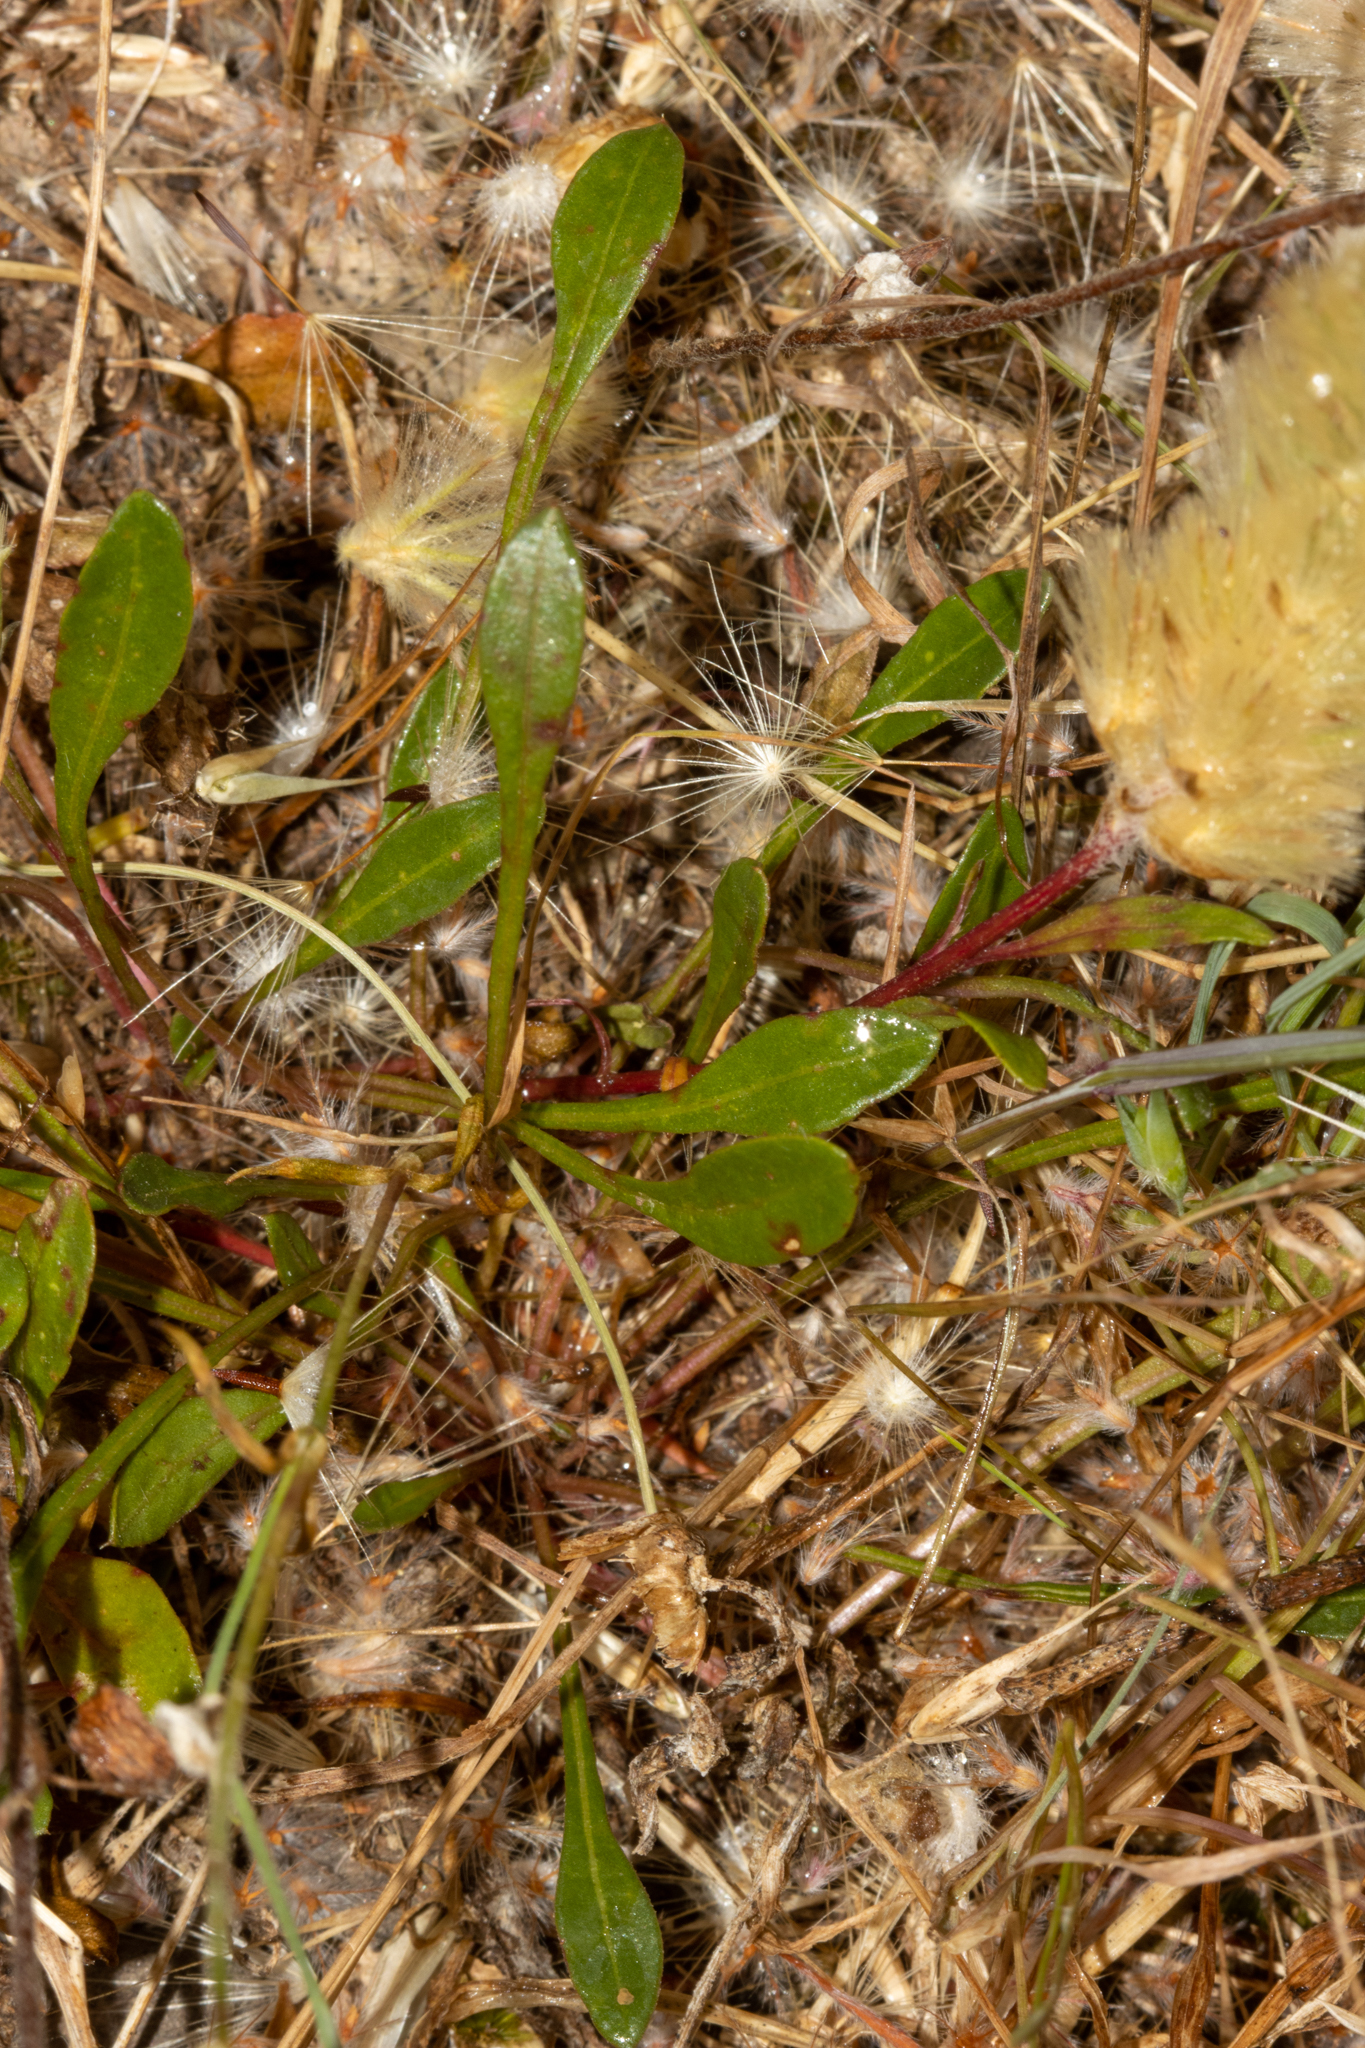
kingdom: Plantae
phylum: Tracheophyta
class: Magnoliopsida
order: Caryophyllales
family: Amaranthaceae
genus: Ptilotus
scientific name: Ptilotus spathulatus
